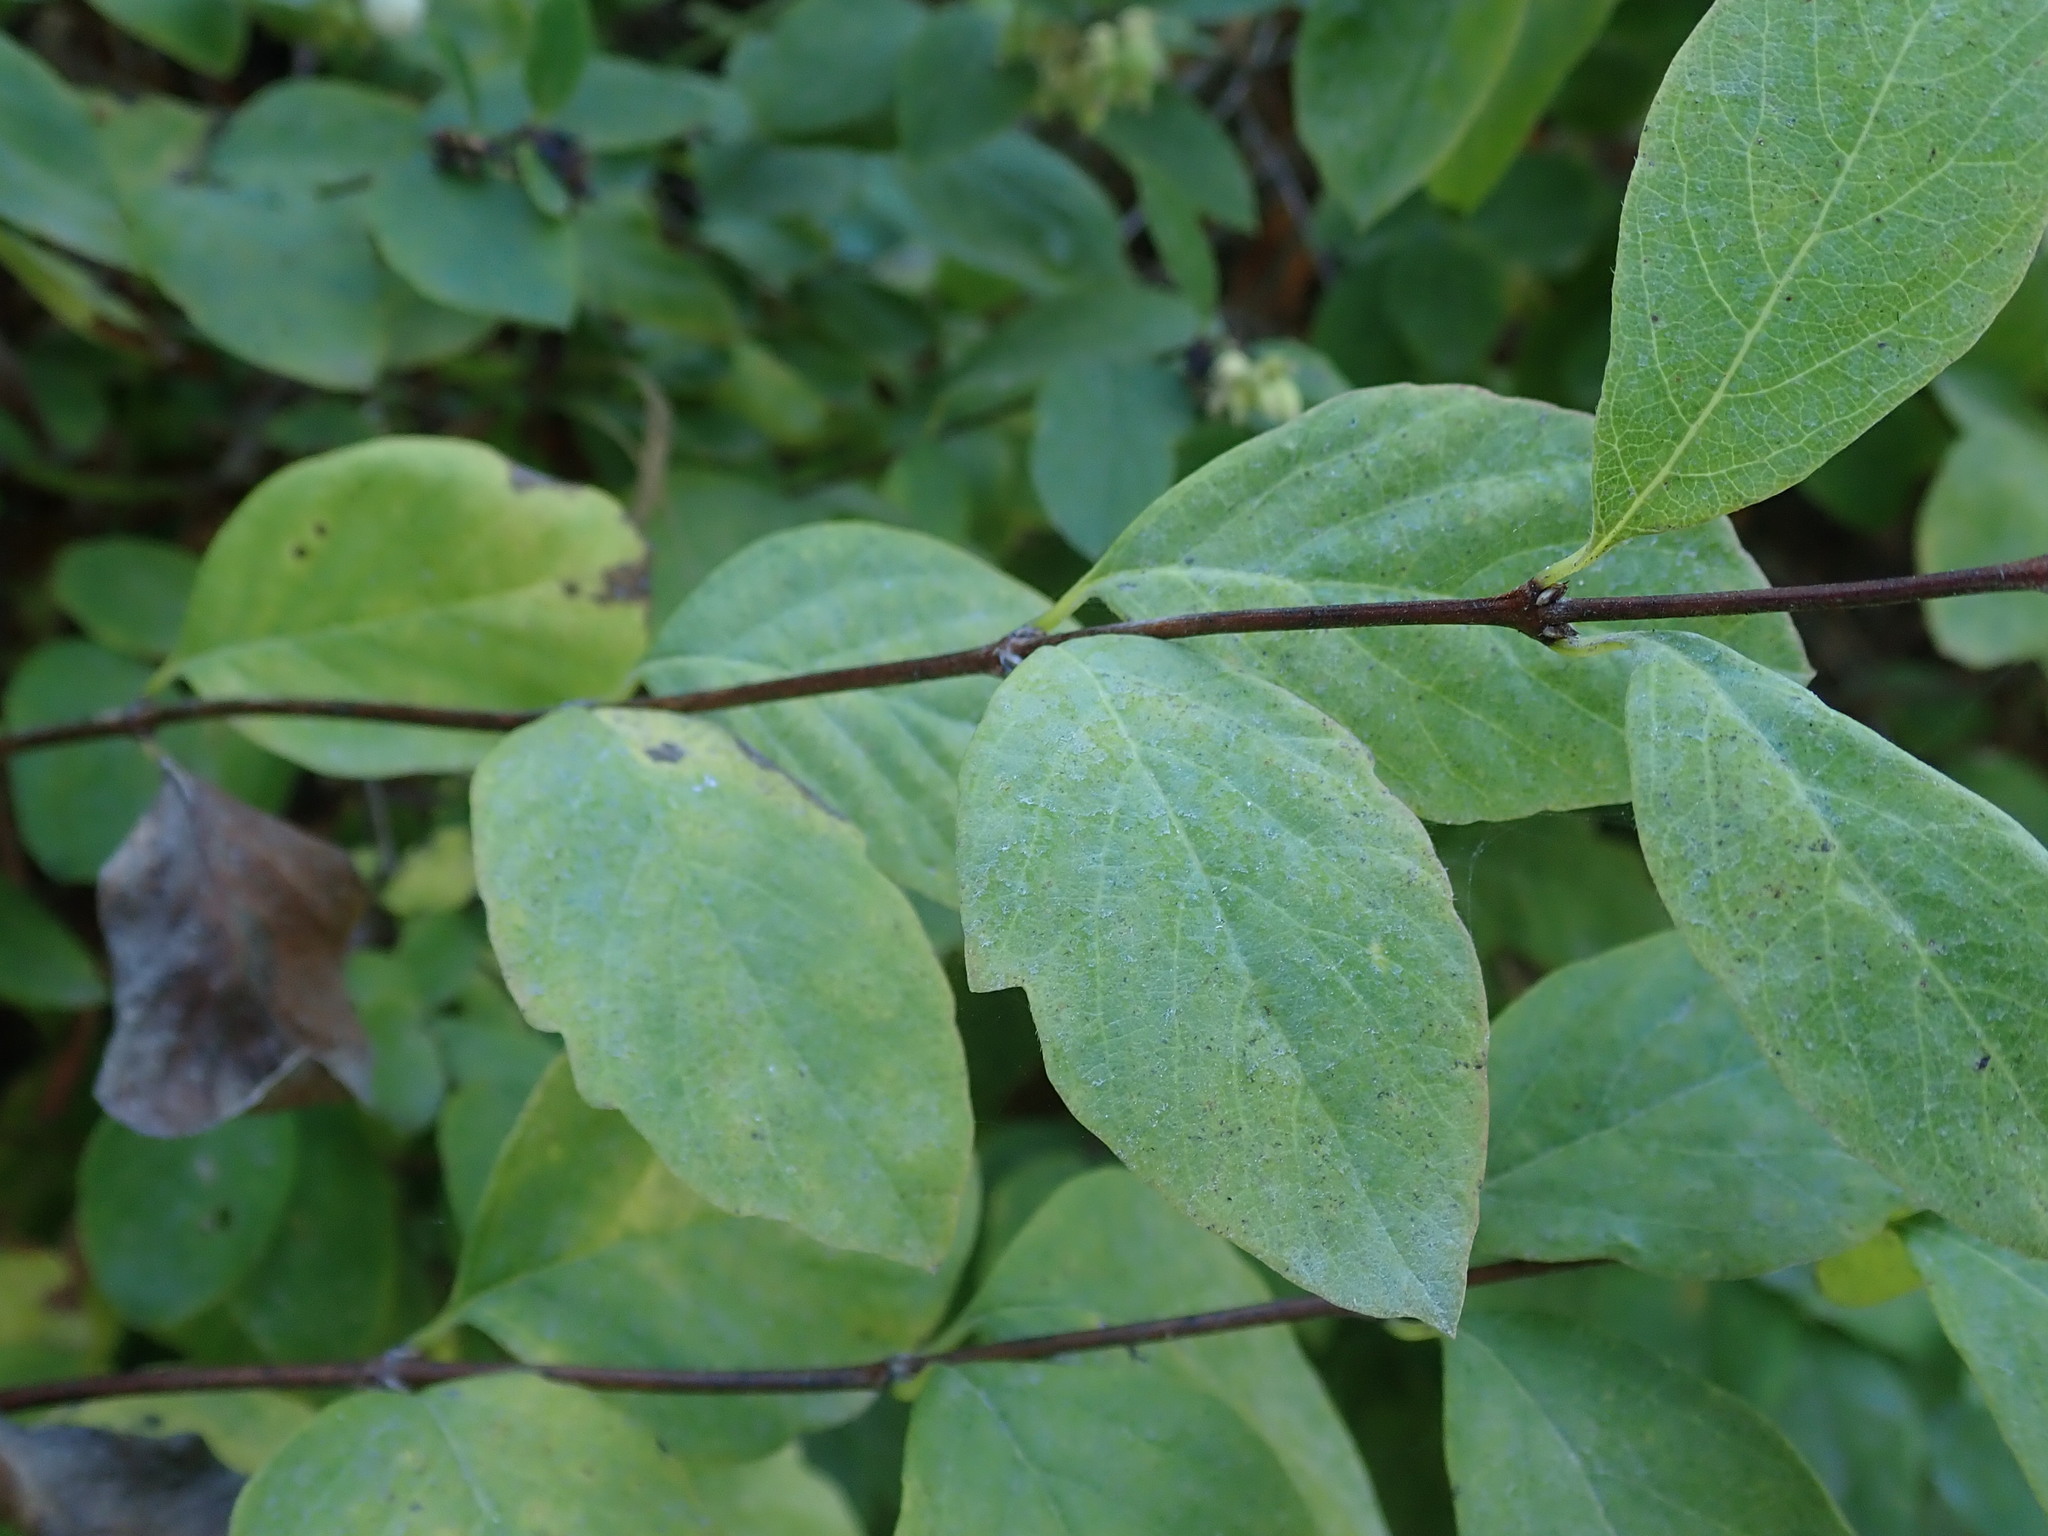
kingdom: Plantae
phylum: Tracheophyta
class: Magnoliopsida
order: Dipsacales
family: Caprifoliaceae
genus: Symphoricarpos
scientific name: Symphoricarpos albus
